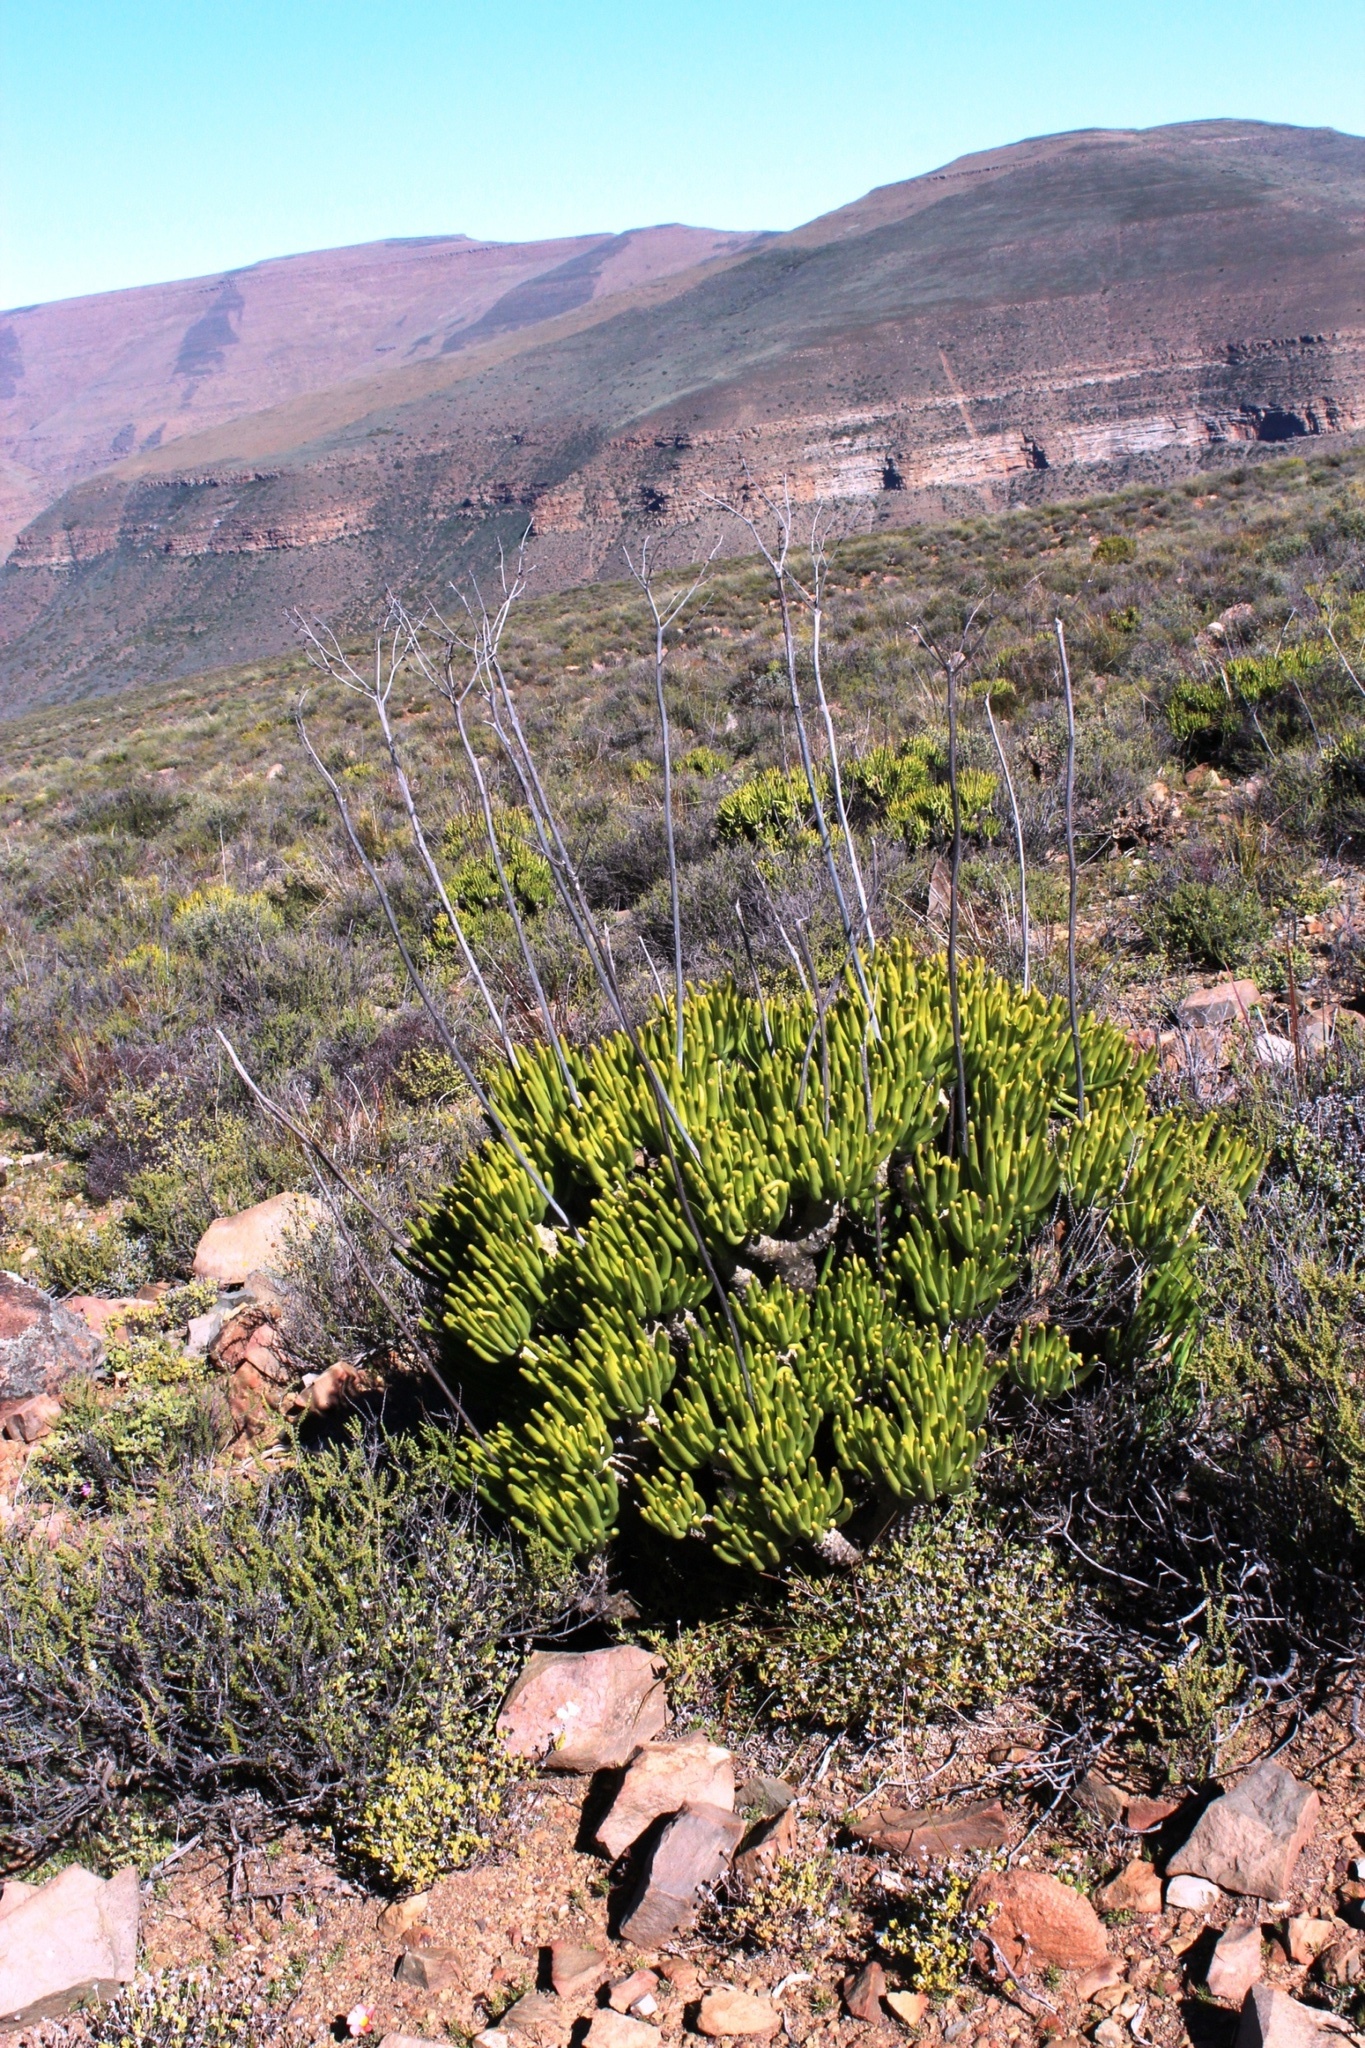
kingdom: Plantae
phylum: Tracheophyta
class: Magnoliopsida
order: Saxifragales
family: Crassulaceae
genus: Tylecodon
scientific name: Tylecodon wallichii
